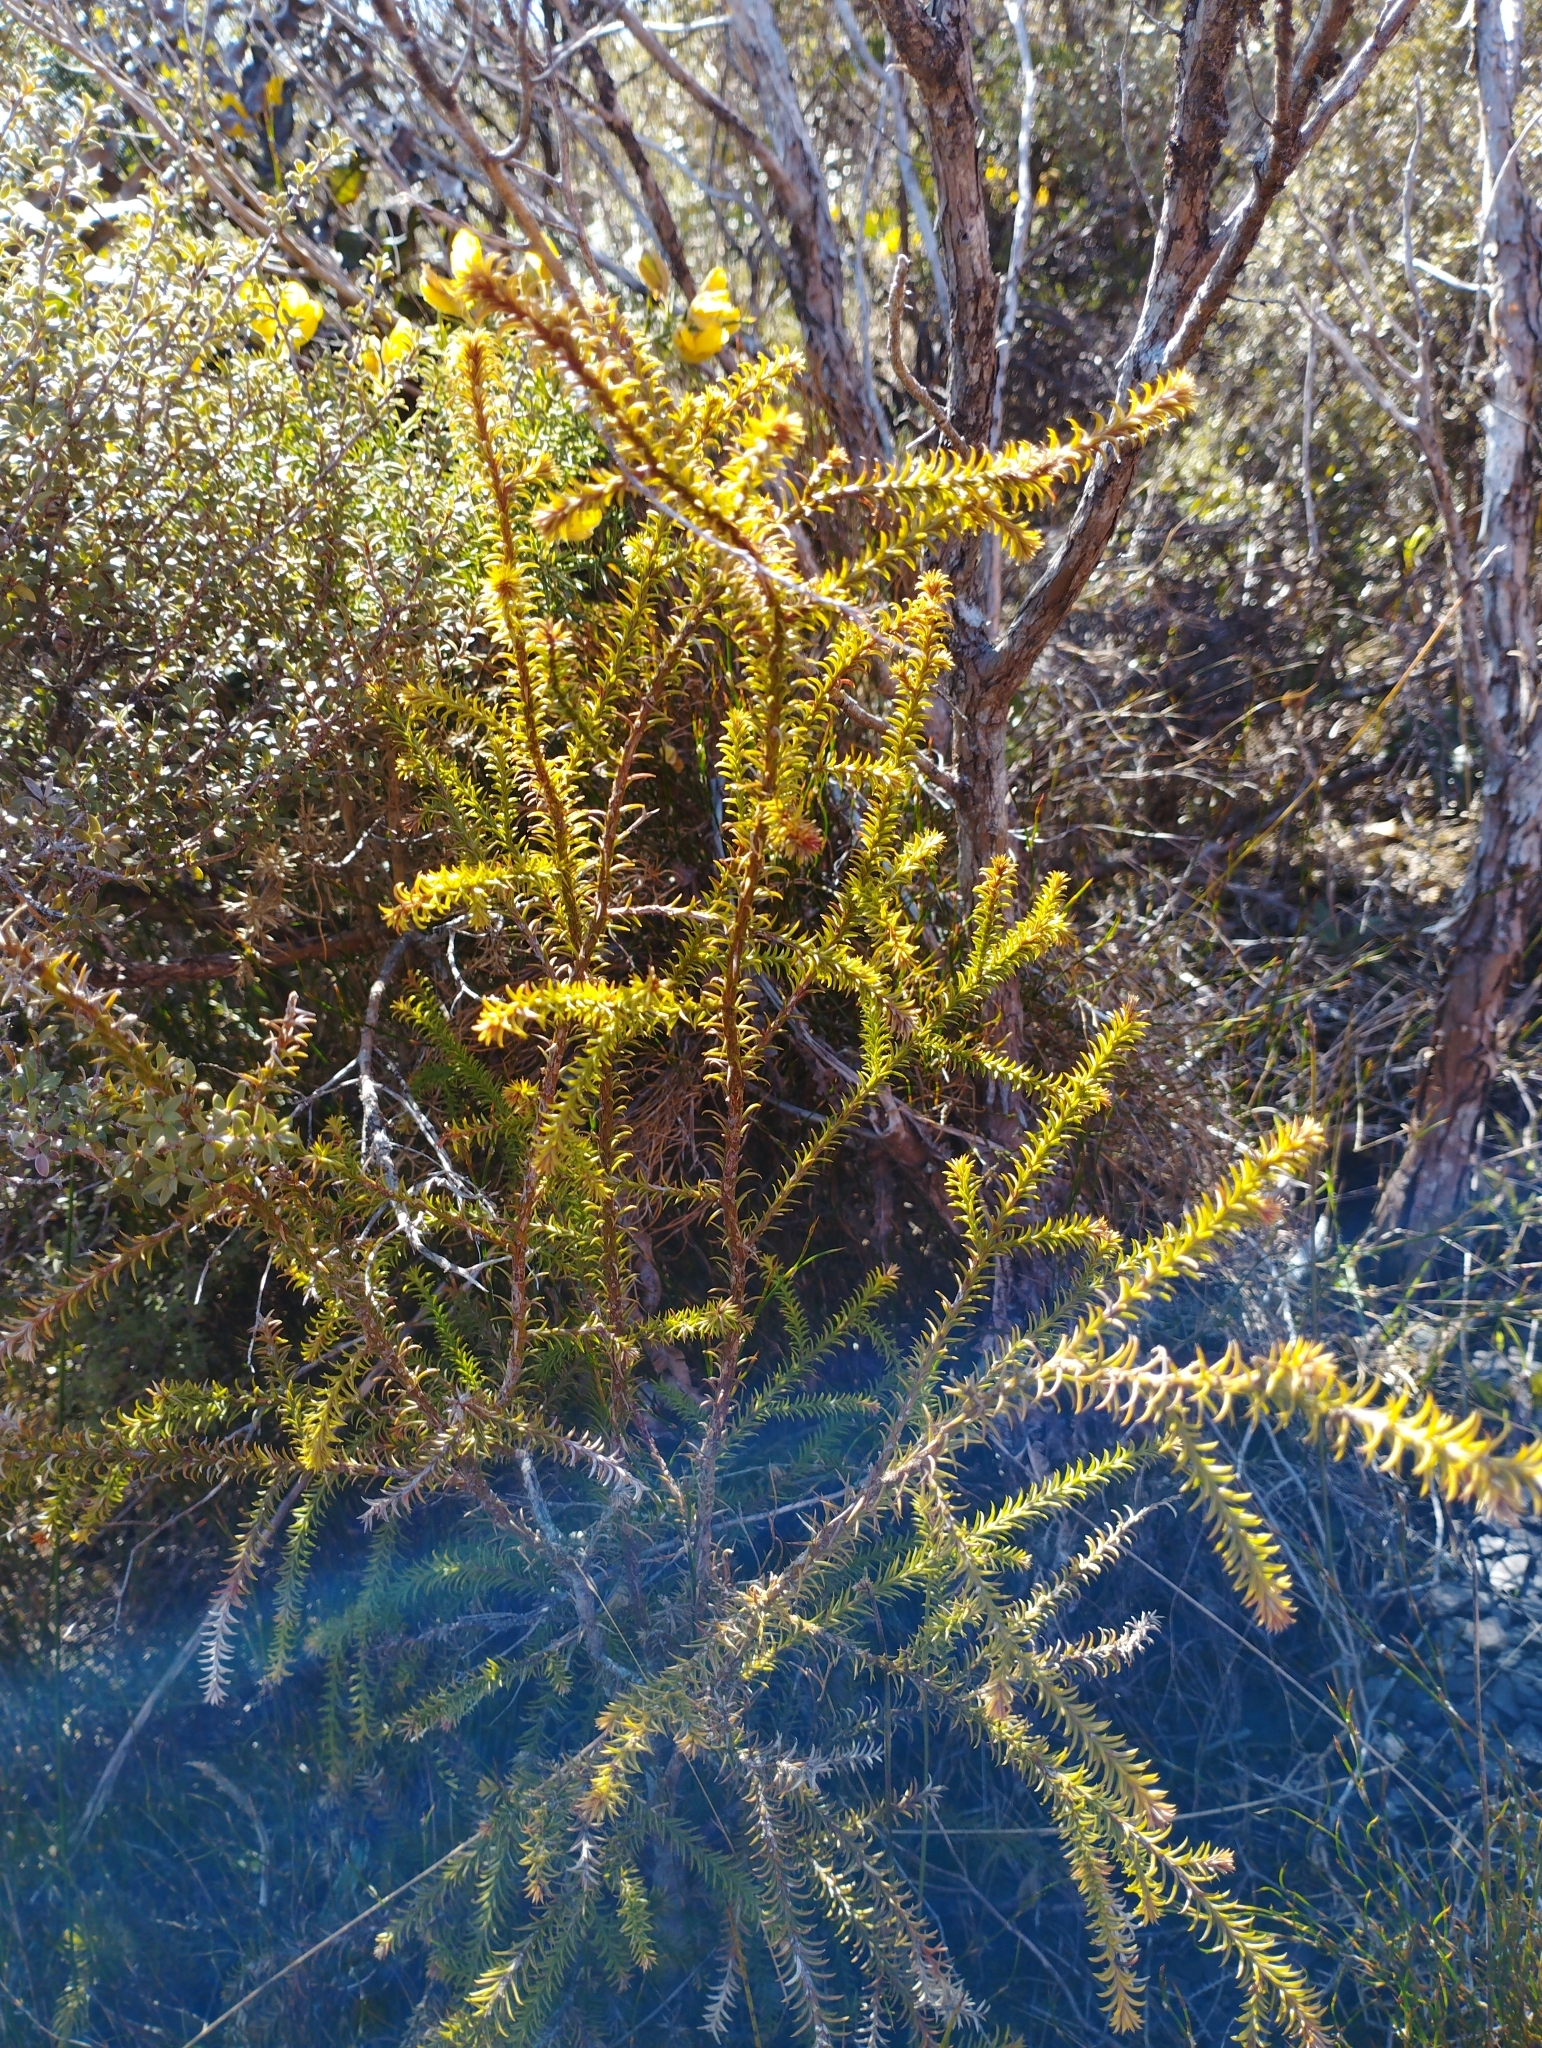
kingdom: Plantae
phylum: Tracheophyta
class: Pinopsida
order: Pinales
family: Podocarpaceae
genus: Lepidothamnus
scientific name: Lepidothamnus intermedius
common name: Yellow silver pine
